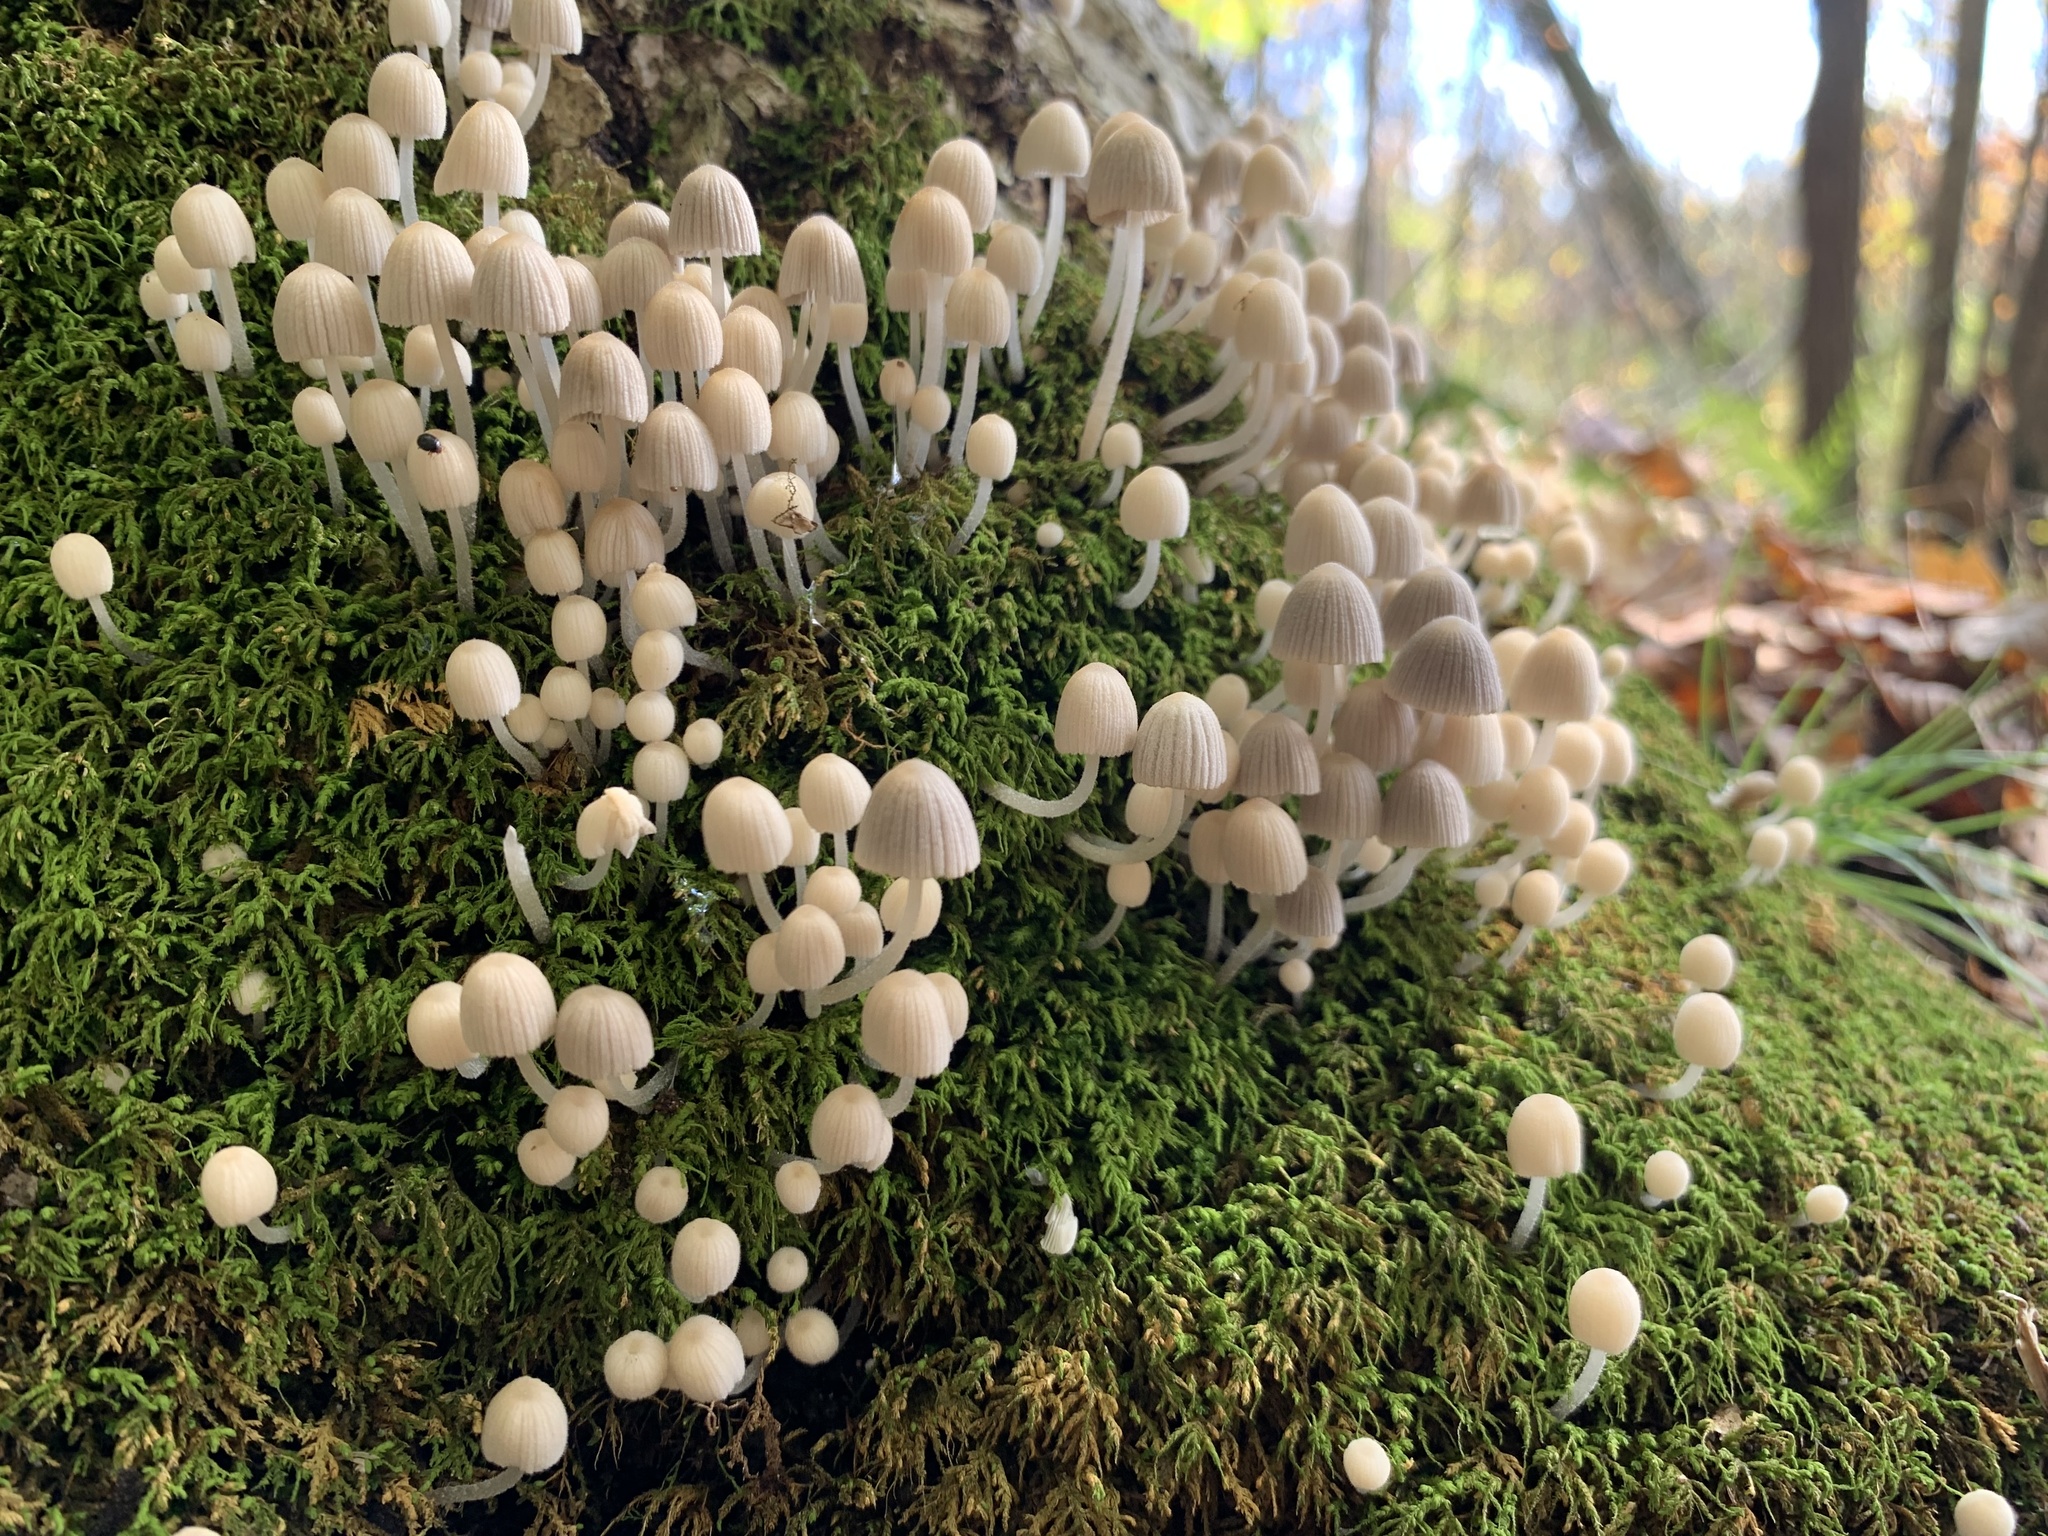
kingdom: Fungi
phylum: Basidiomycota
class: Agaricomycetes
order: Agaricales
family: Psathyrellaceae
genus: Coprinellus
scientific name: Coprinellus disseminatus
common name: Fairies' bonnets
